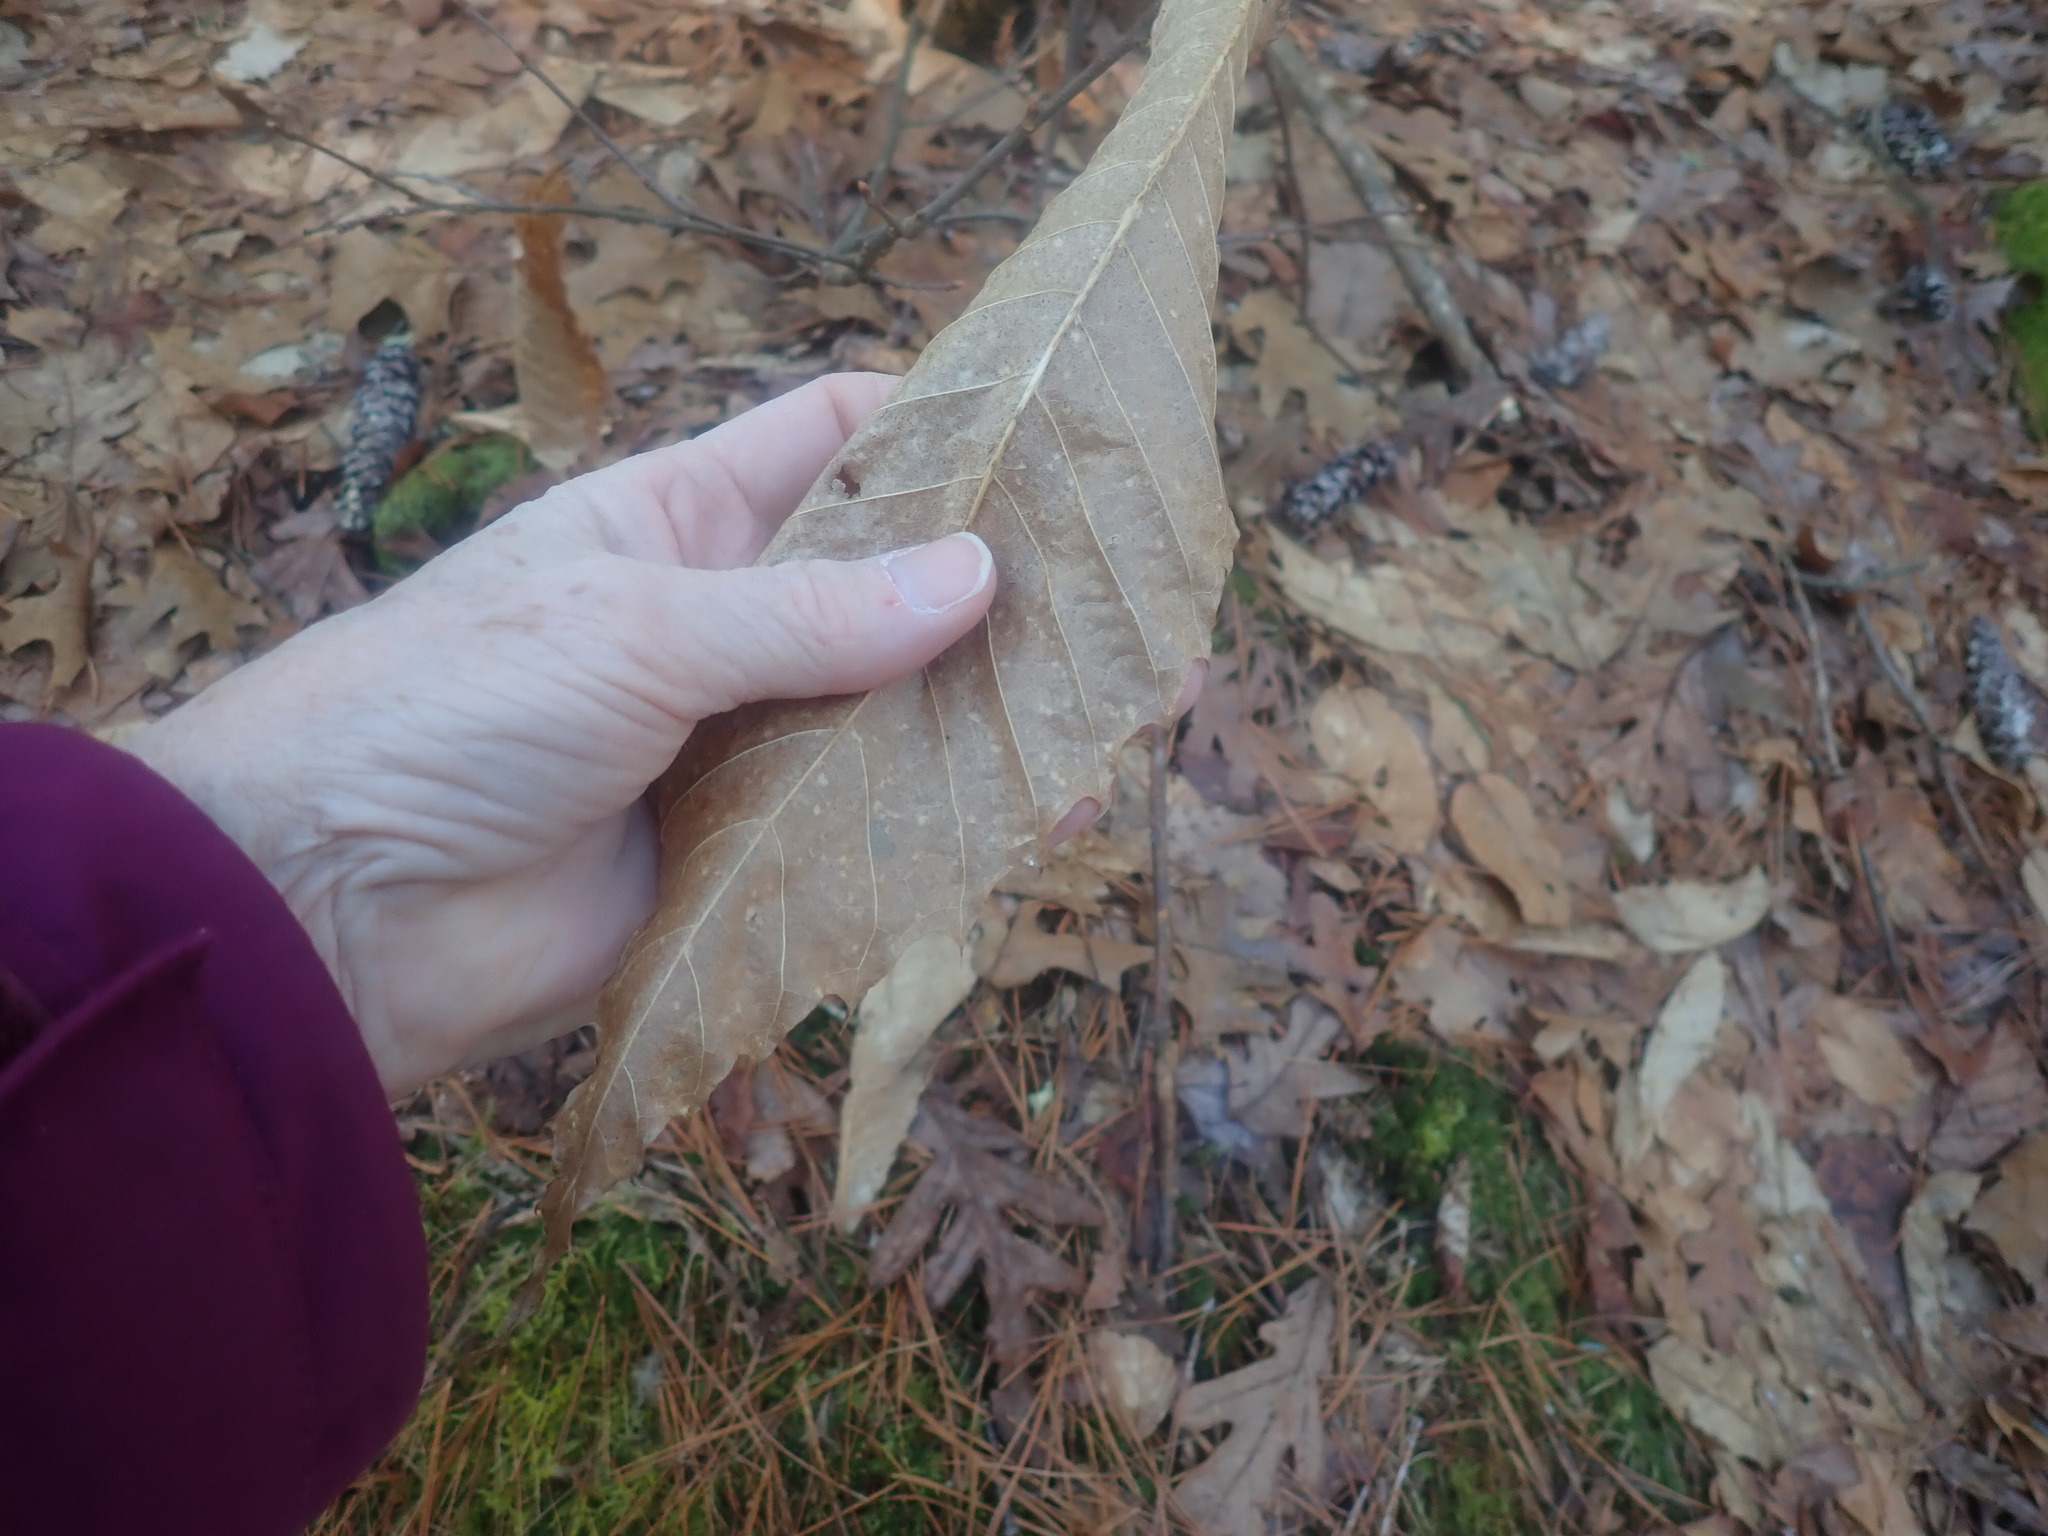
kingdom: Plantae
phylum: Tracheophyta
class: Magnoliopsida
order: Fagales
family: Fagaceae
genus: Castanea
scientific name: Castanea dentata
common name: American chestnut
